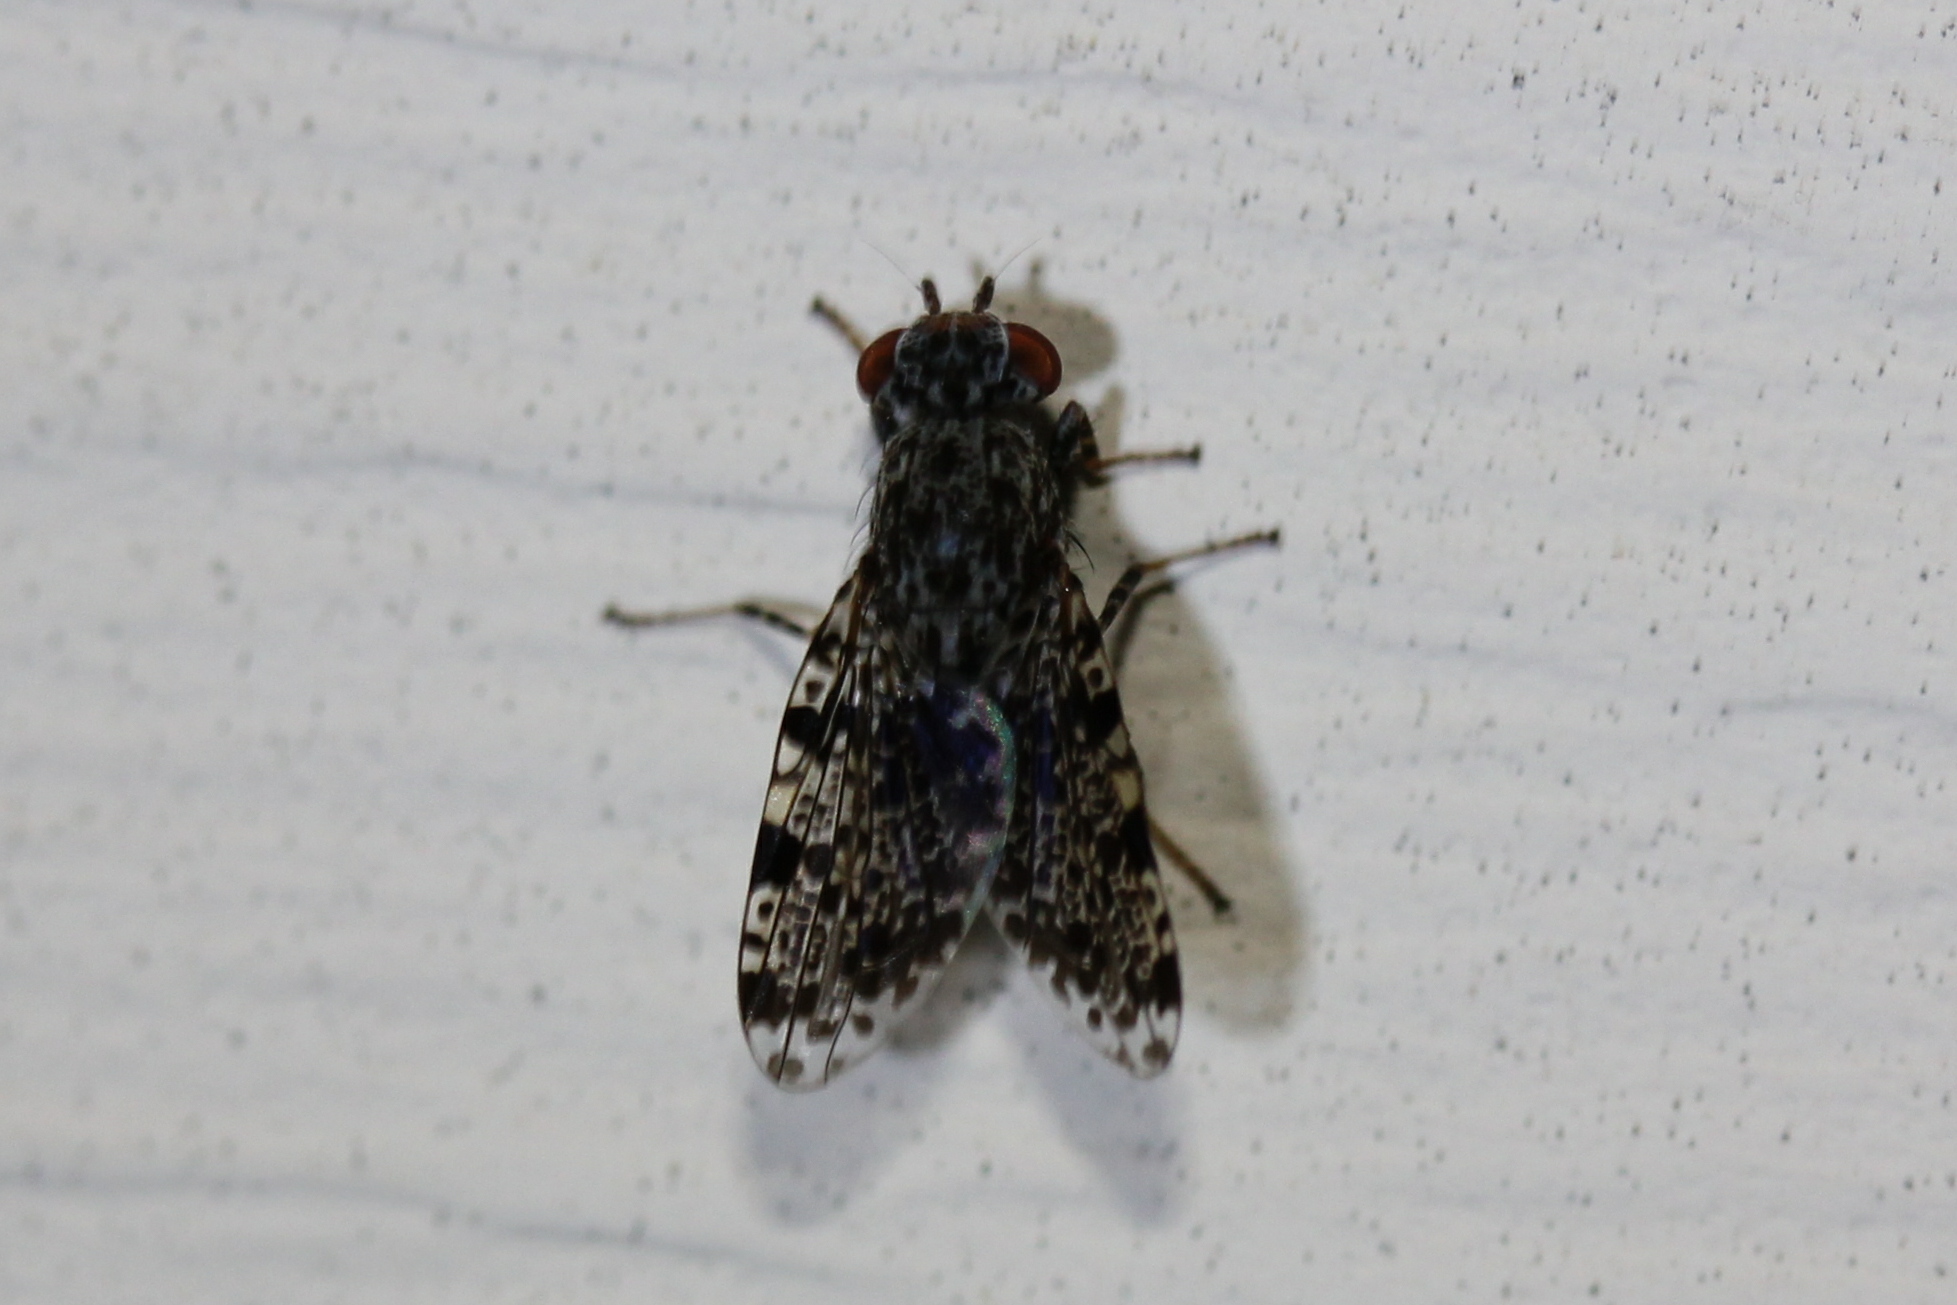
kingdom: Animalia
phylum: Arthropoda
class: Insecta
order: Diptera
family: Ulidiidae
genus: Callopistromyia
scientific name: Callopistromyia annulipes
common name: Peacock fly
